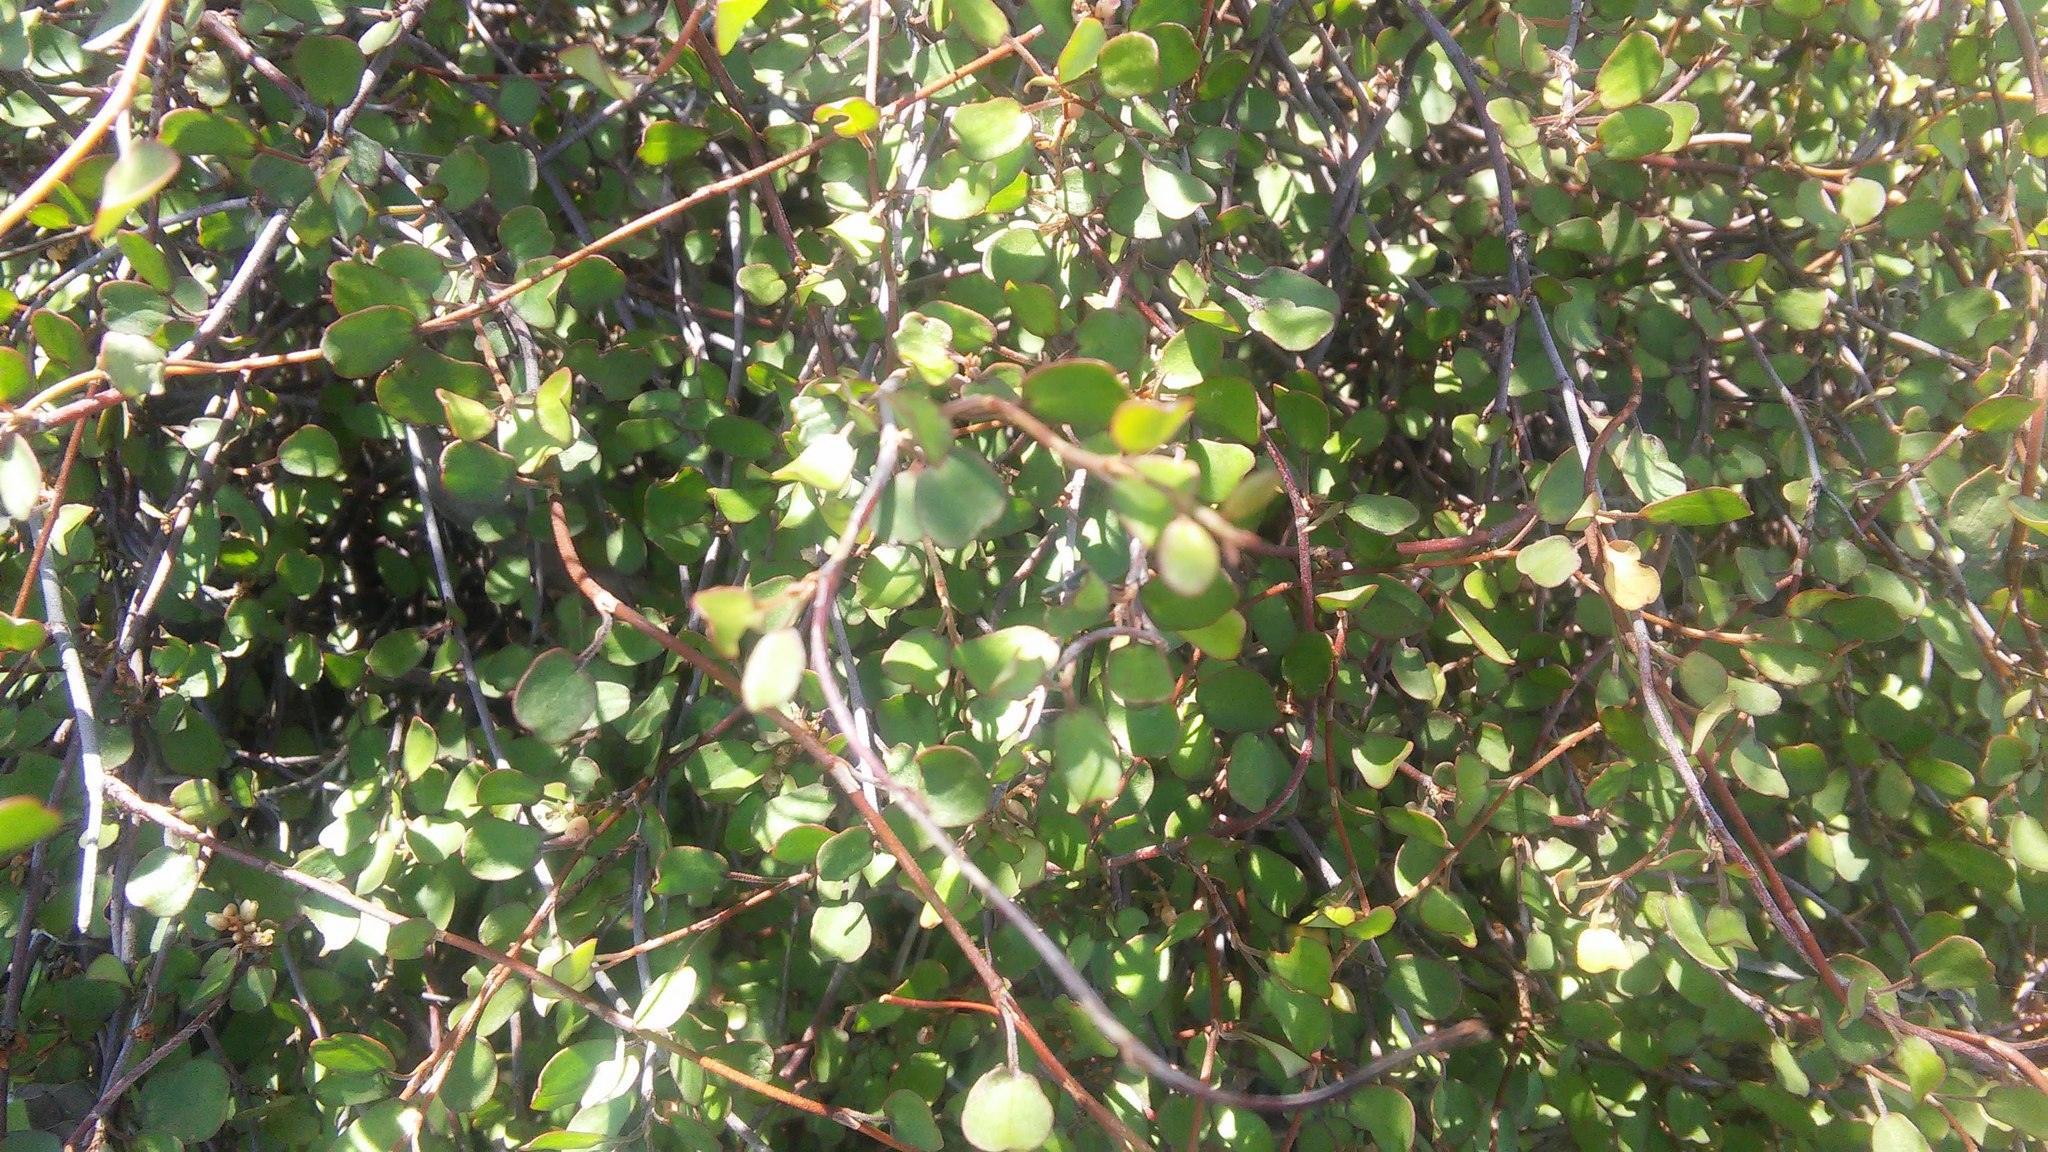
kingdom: Plantae
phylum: Tracheophyta
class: Magnoliopsida
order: Caryophyllales
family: Polygonaceae
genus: Muehlenbeckia
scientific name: Muehlenbeckia complexa
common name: Wireplant
